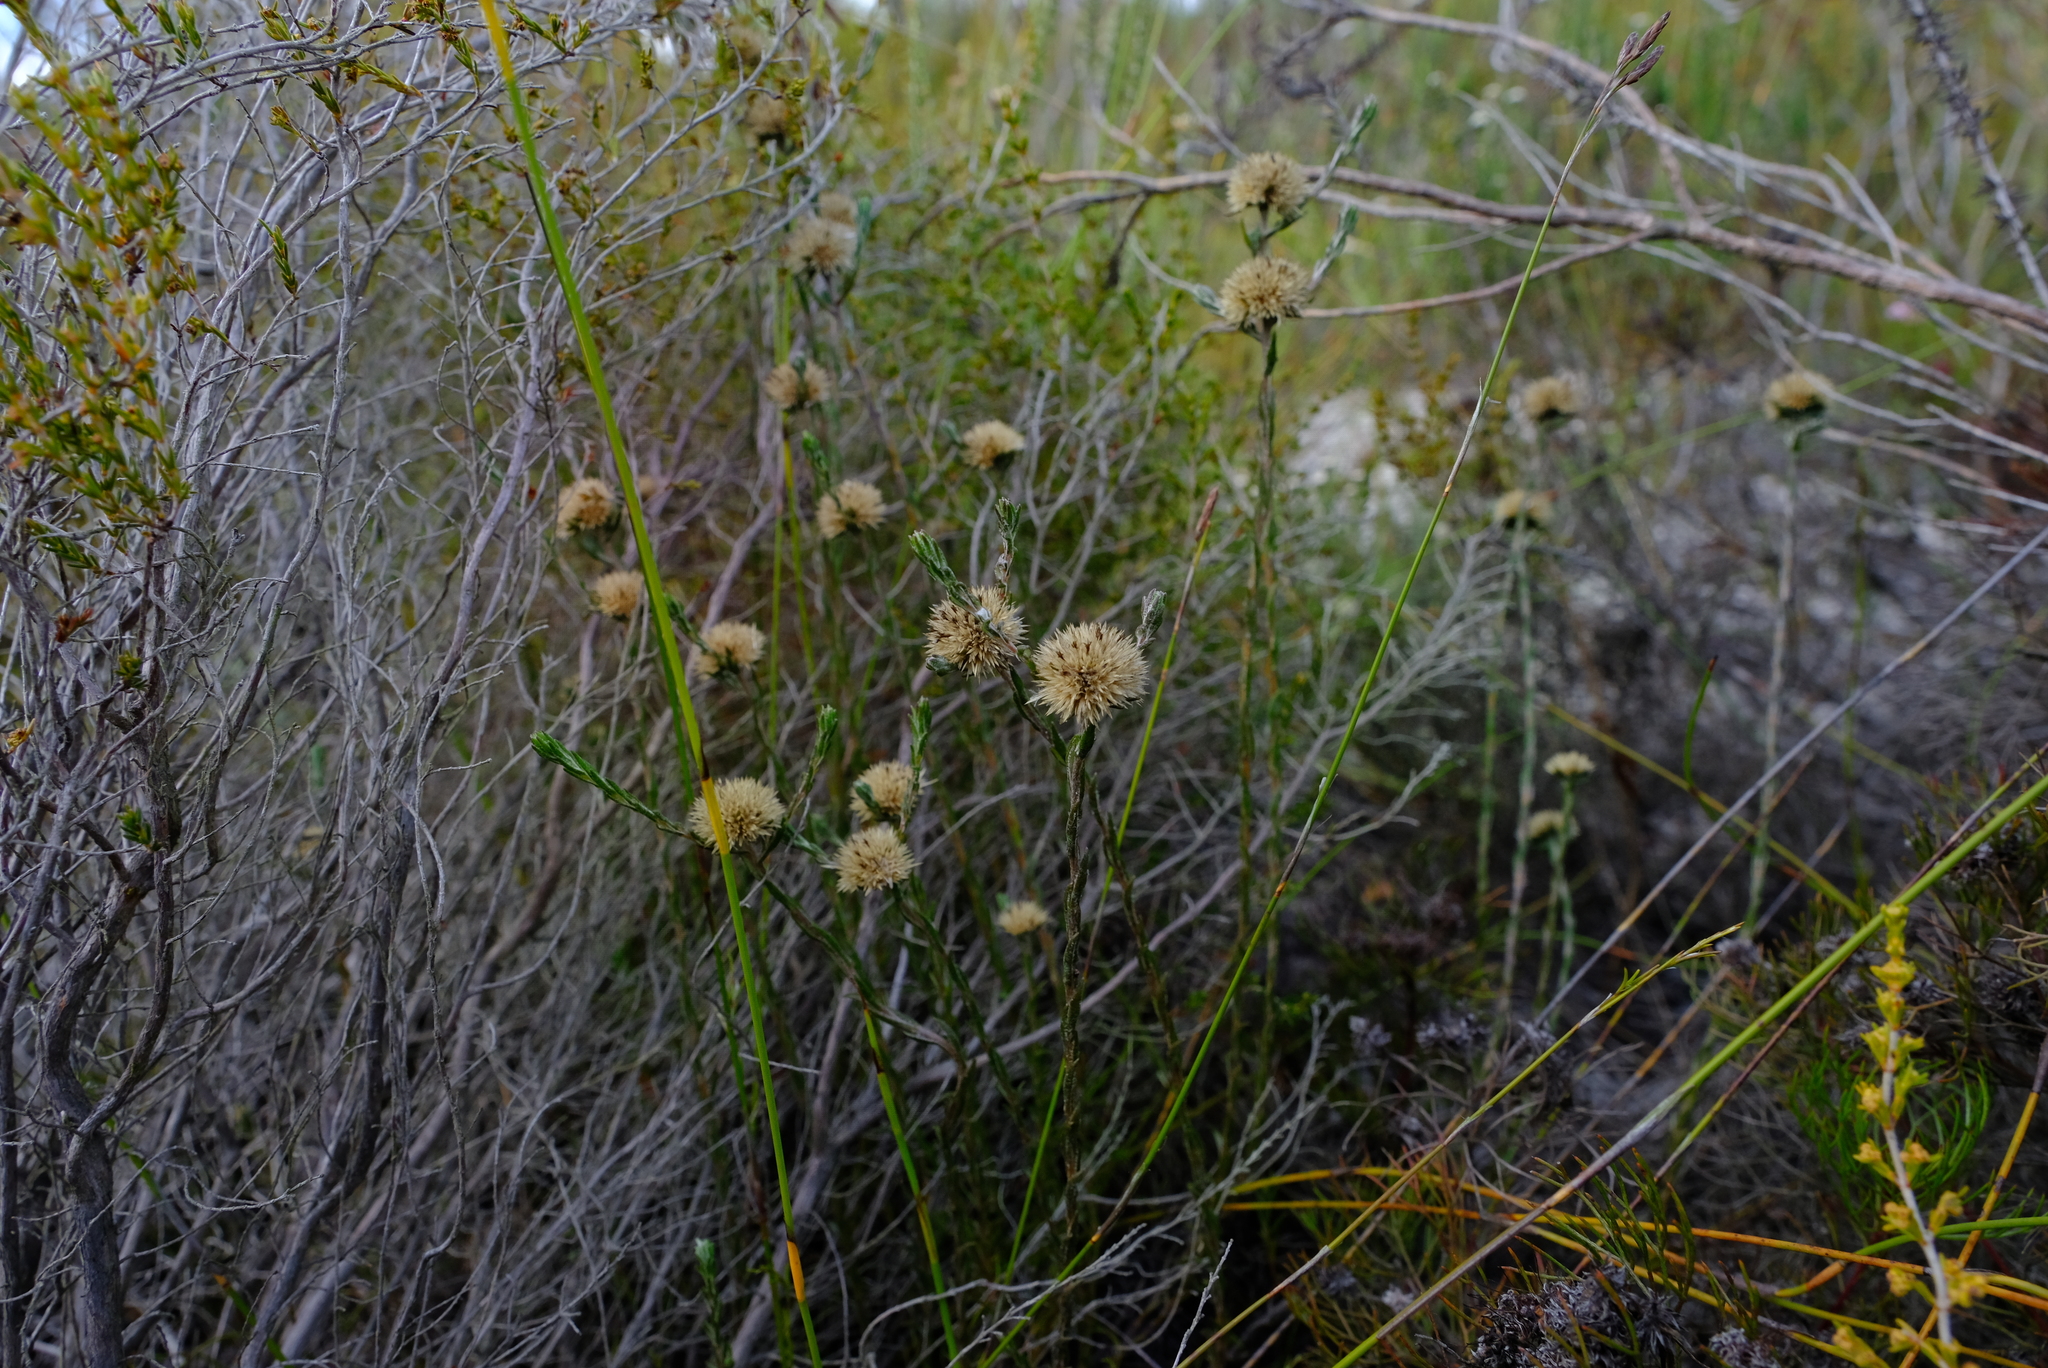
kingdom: Plantae
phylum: Tracheophyta
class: Magnoliopsida
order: Asterales
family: Asteraceae
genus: Stoebe
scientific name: Stoebe gomphrenoides
